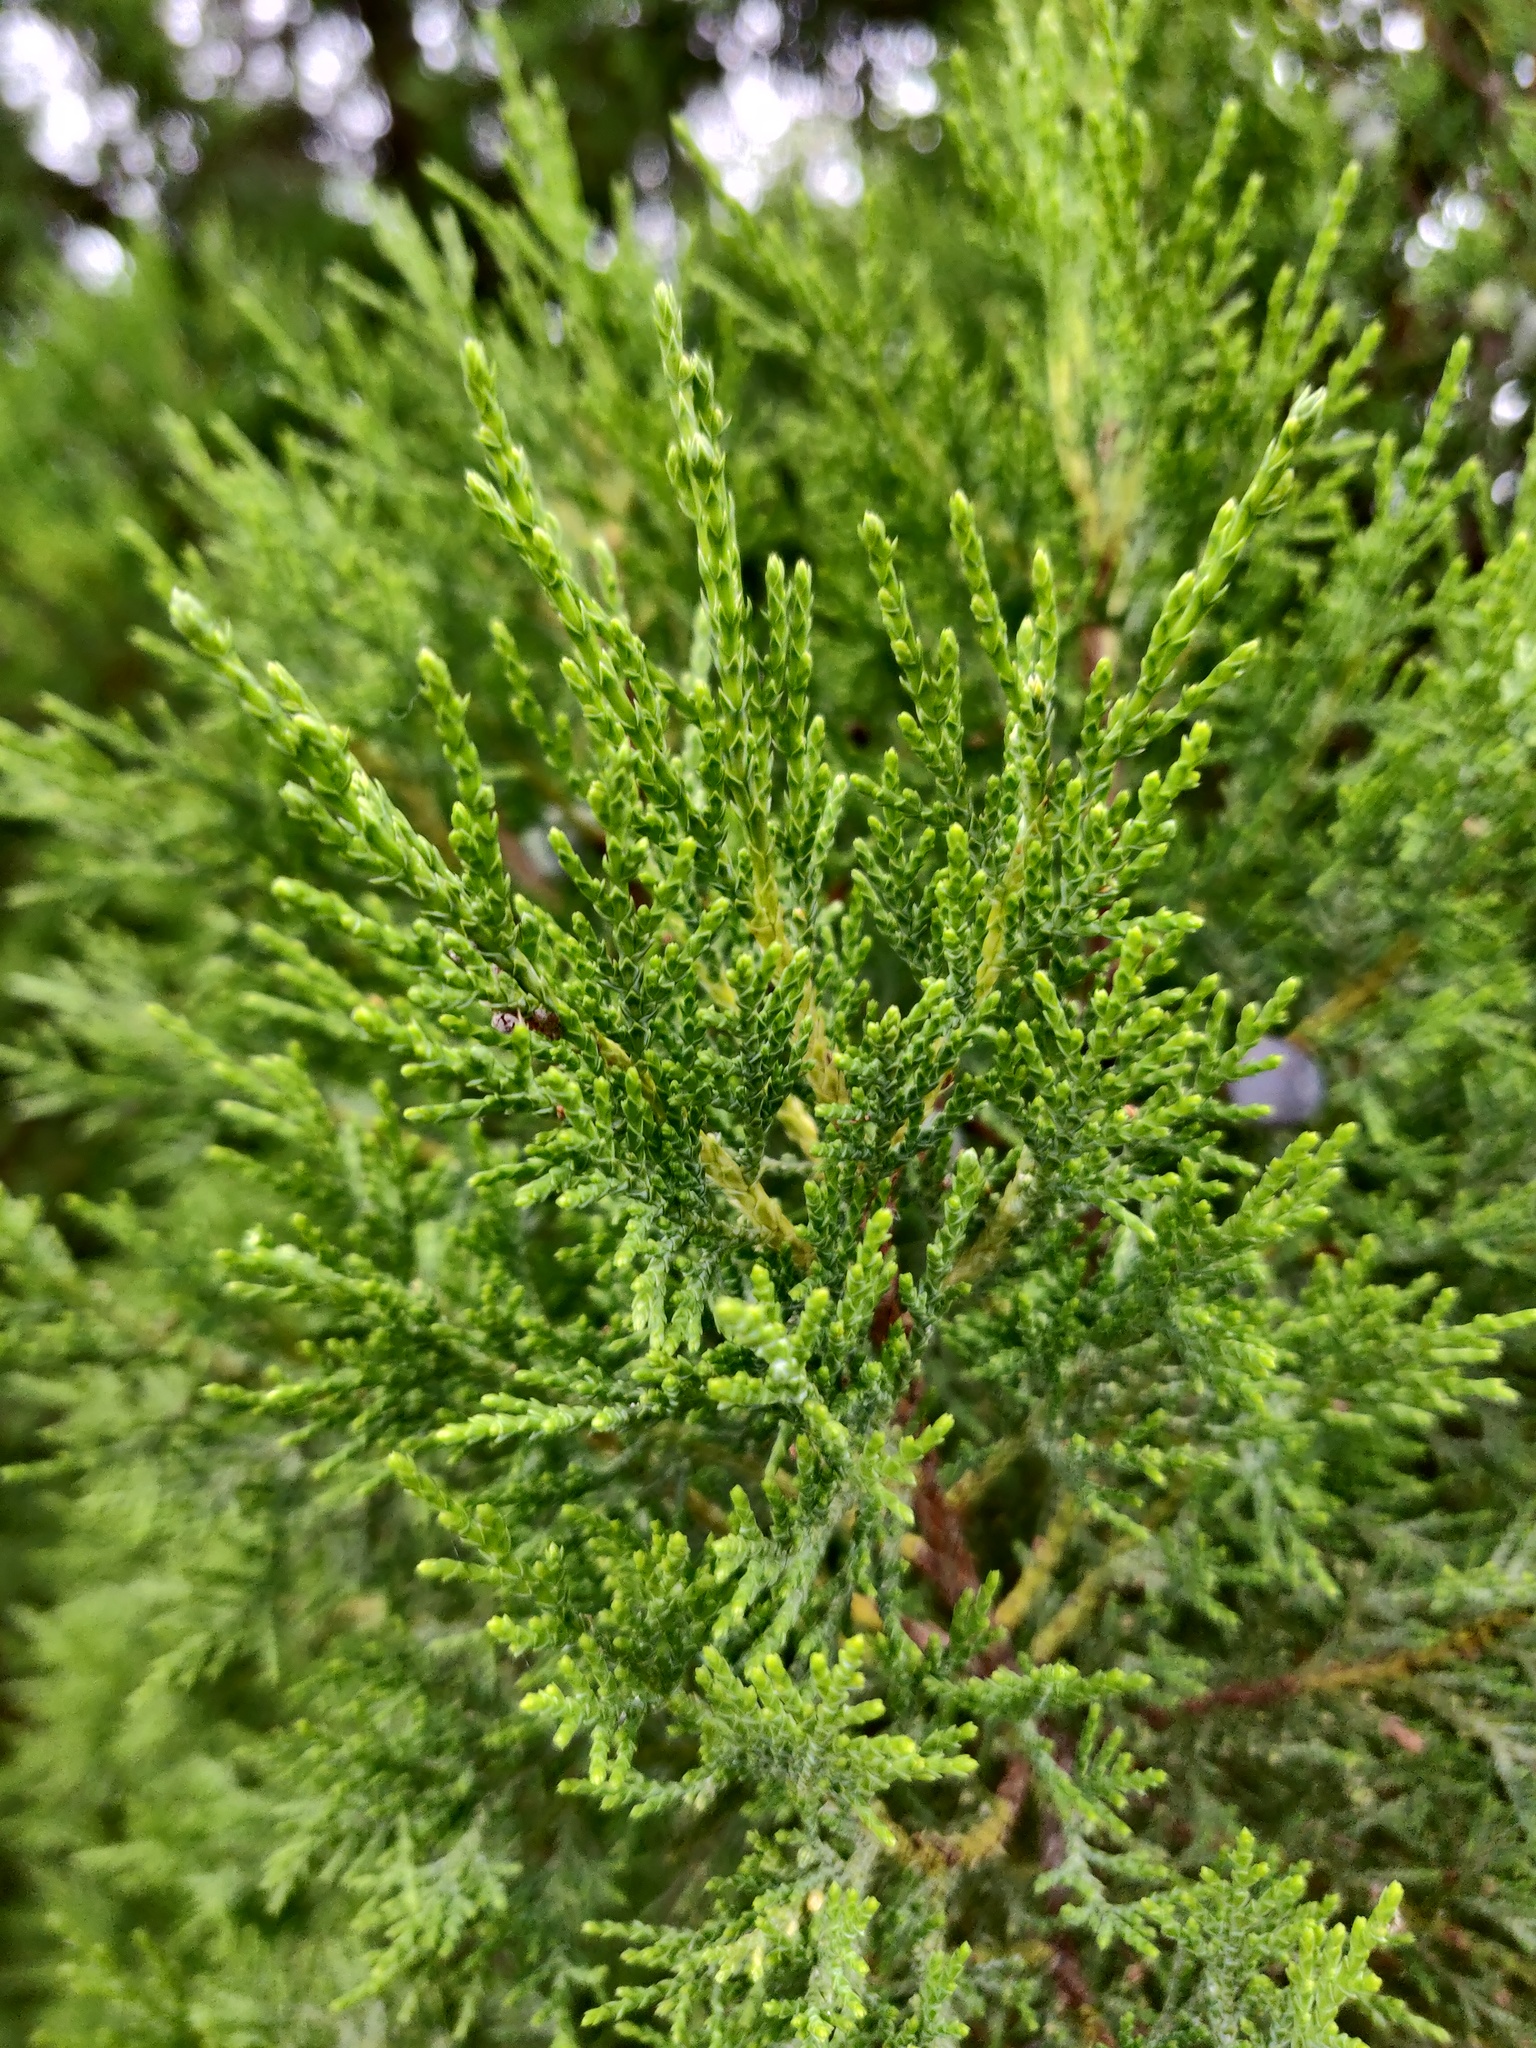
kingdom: Plantae
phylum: Tracheophyta
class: Pinopsida
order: Pinales
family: Cupressaceae
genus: Juniperus
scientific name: Juniperus excelsa
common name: Crimean juniper
